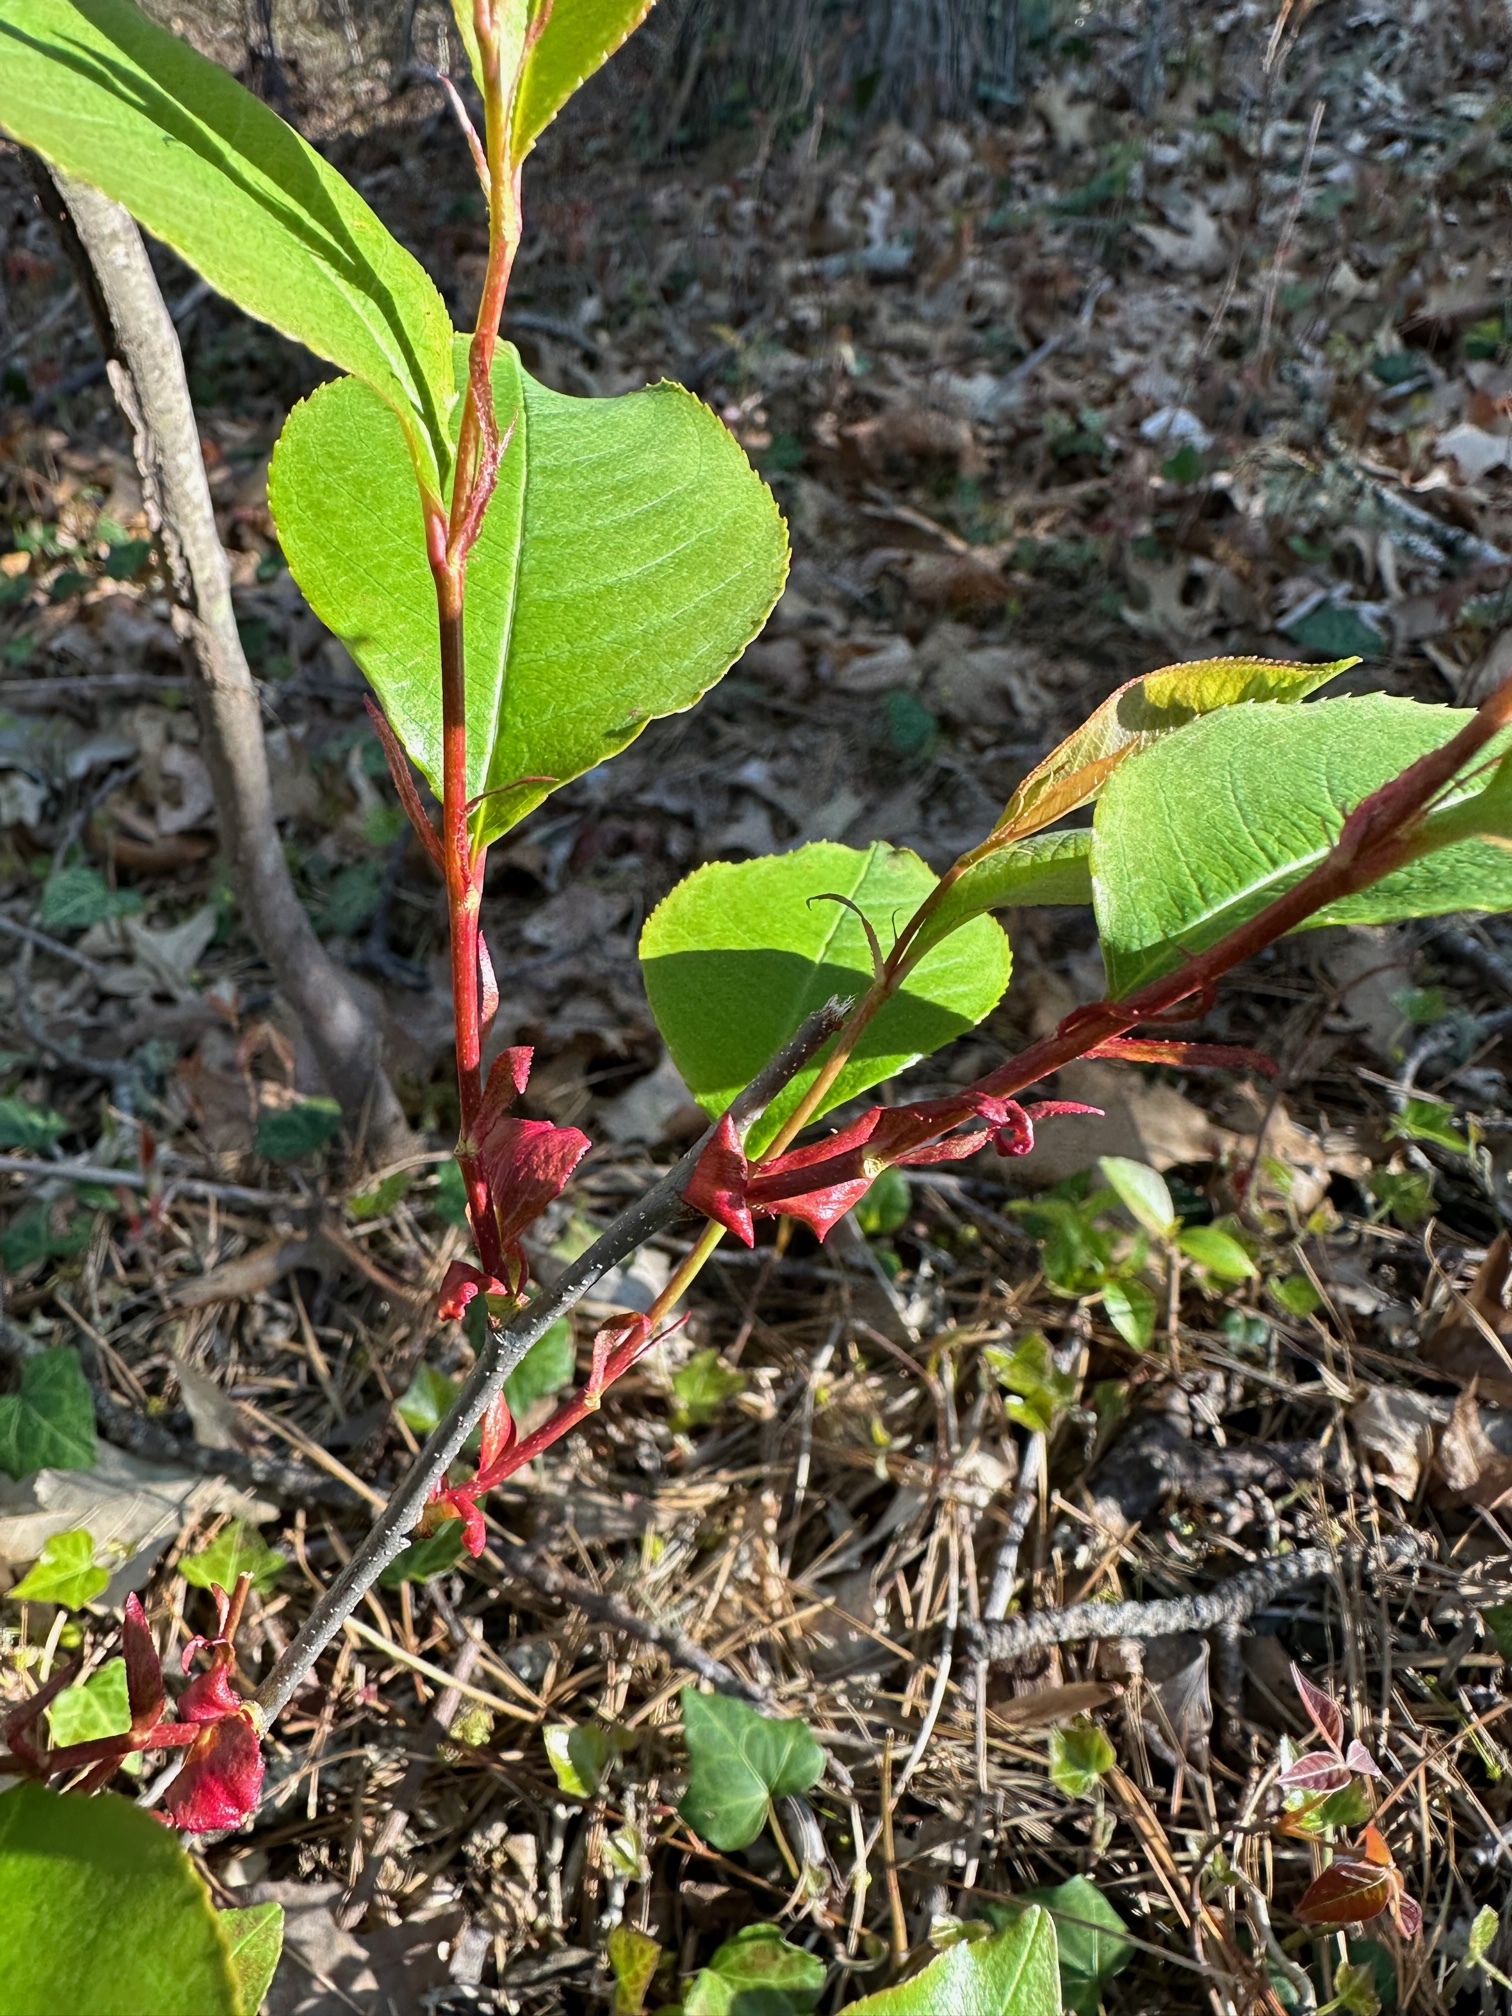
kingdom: Plantae
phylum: Tracheophyta
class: Magnoliopsida
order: Rosales
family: Rosaceae
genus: Prunus
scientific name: Prunus serotina
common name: Black cherry
